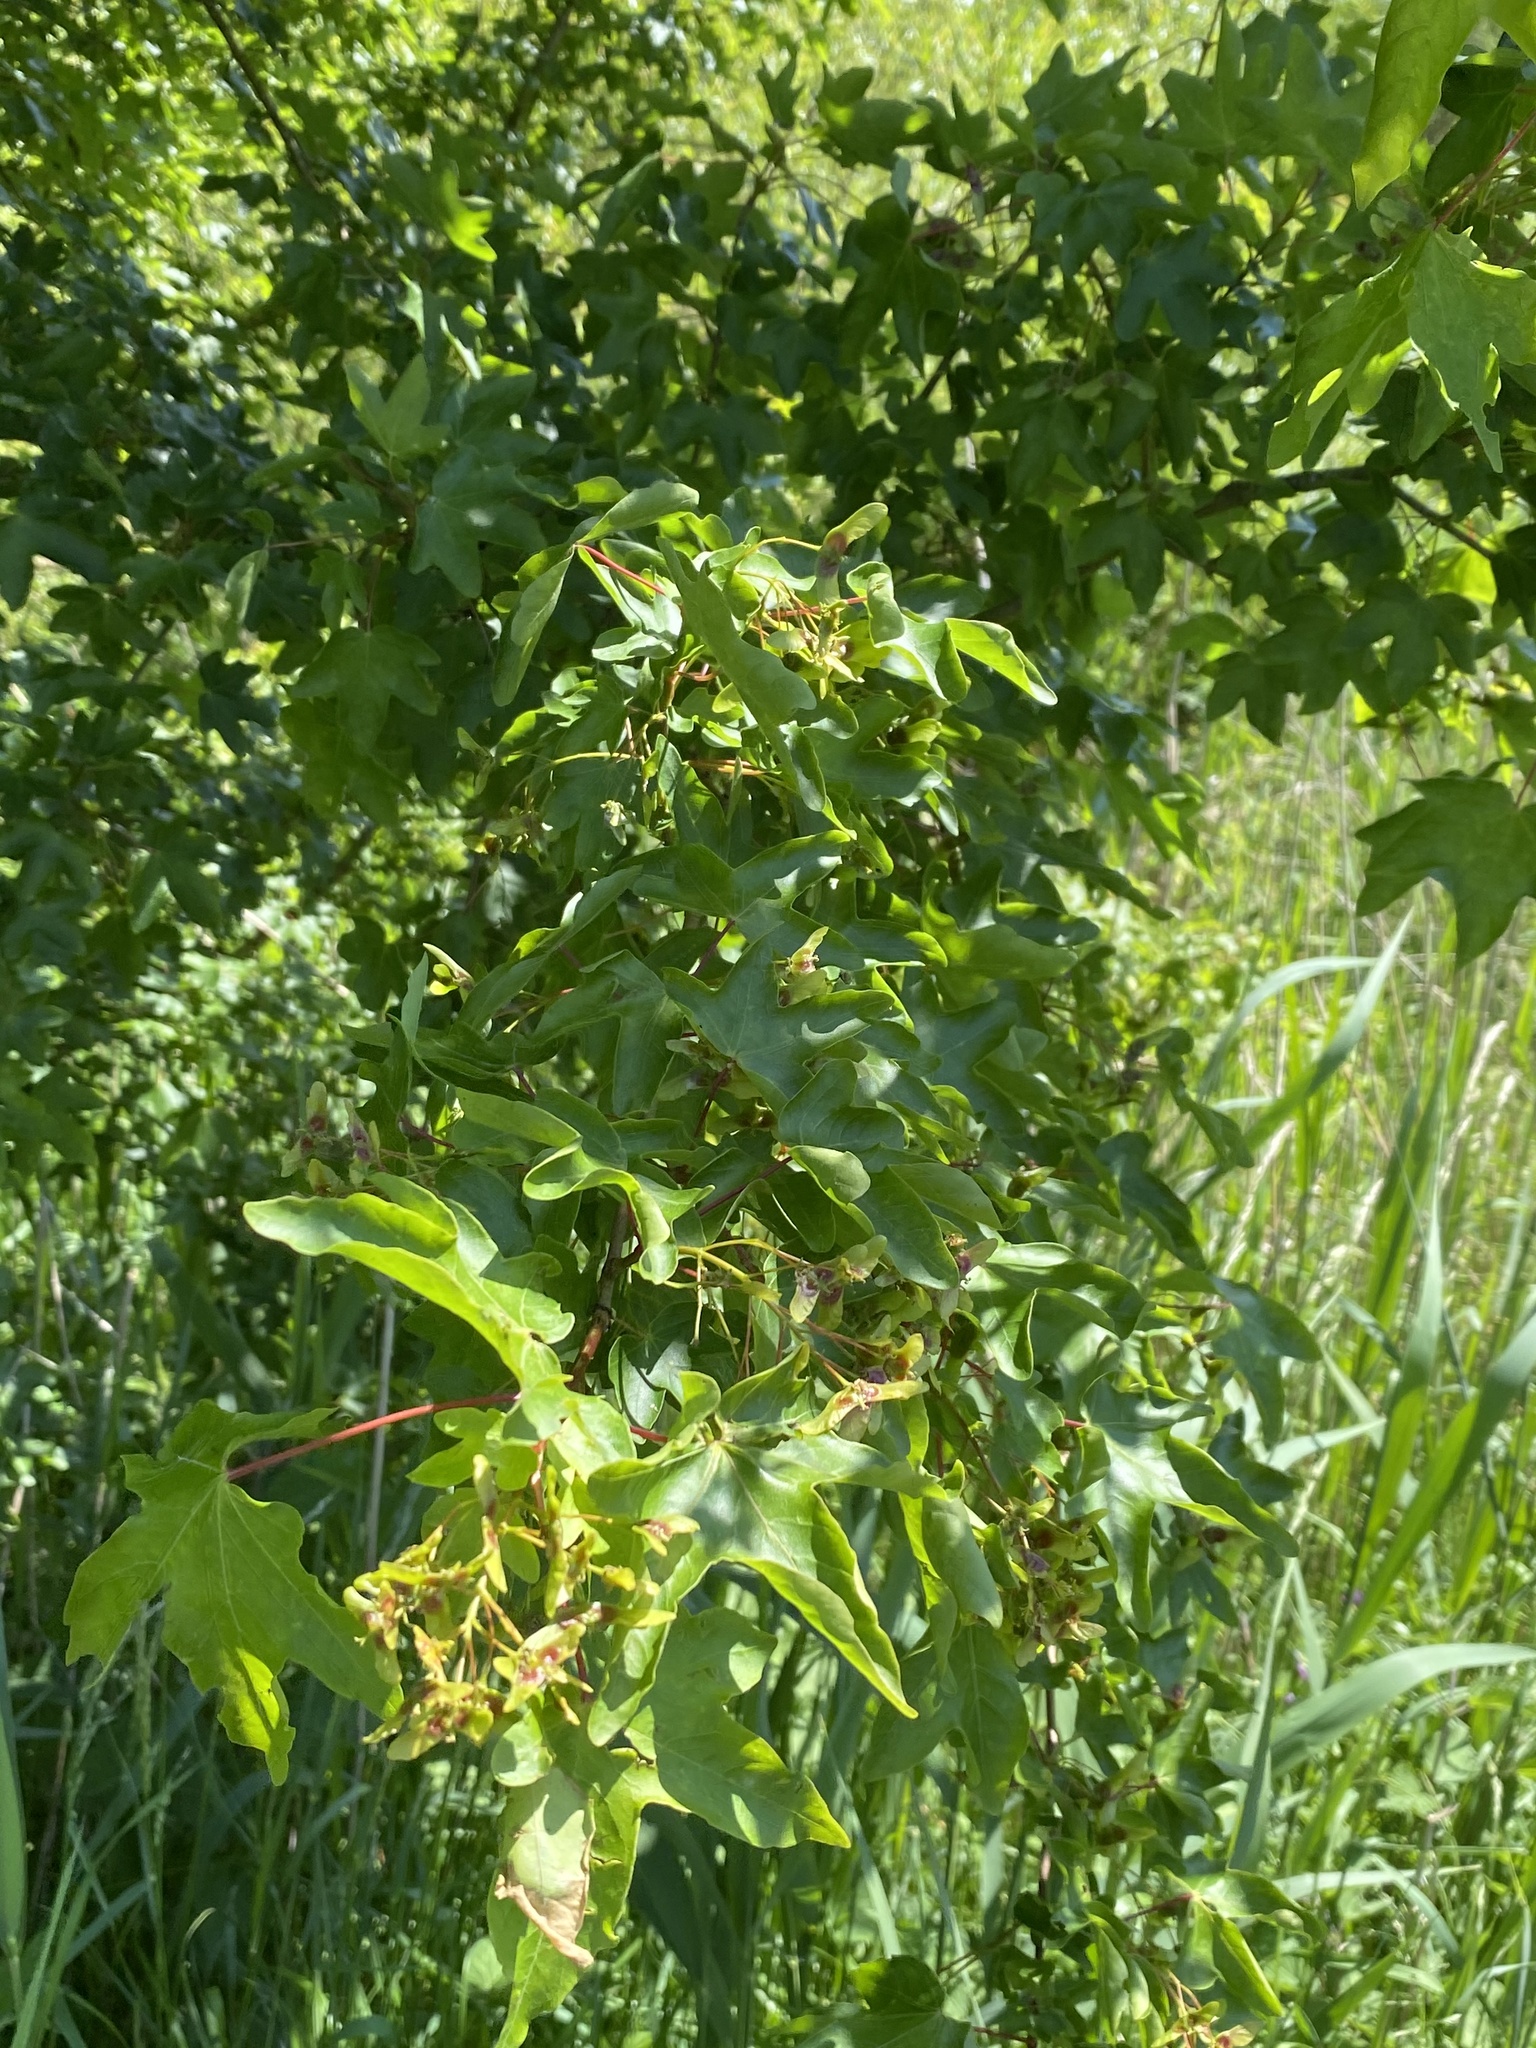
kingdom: Plantae
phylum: Tracheophyta
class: Magnoliopsida
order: Sapindales
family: Sapindaceae
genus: Acer
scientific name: Acer campestre
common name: Field maple
